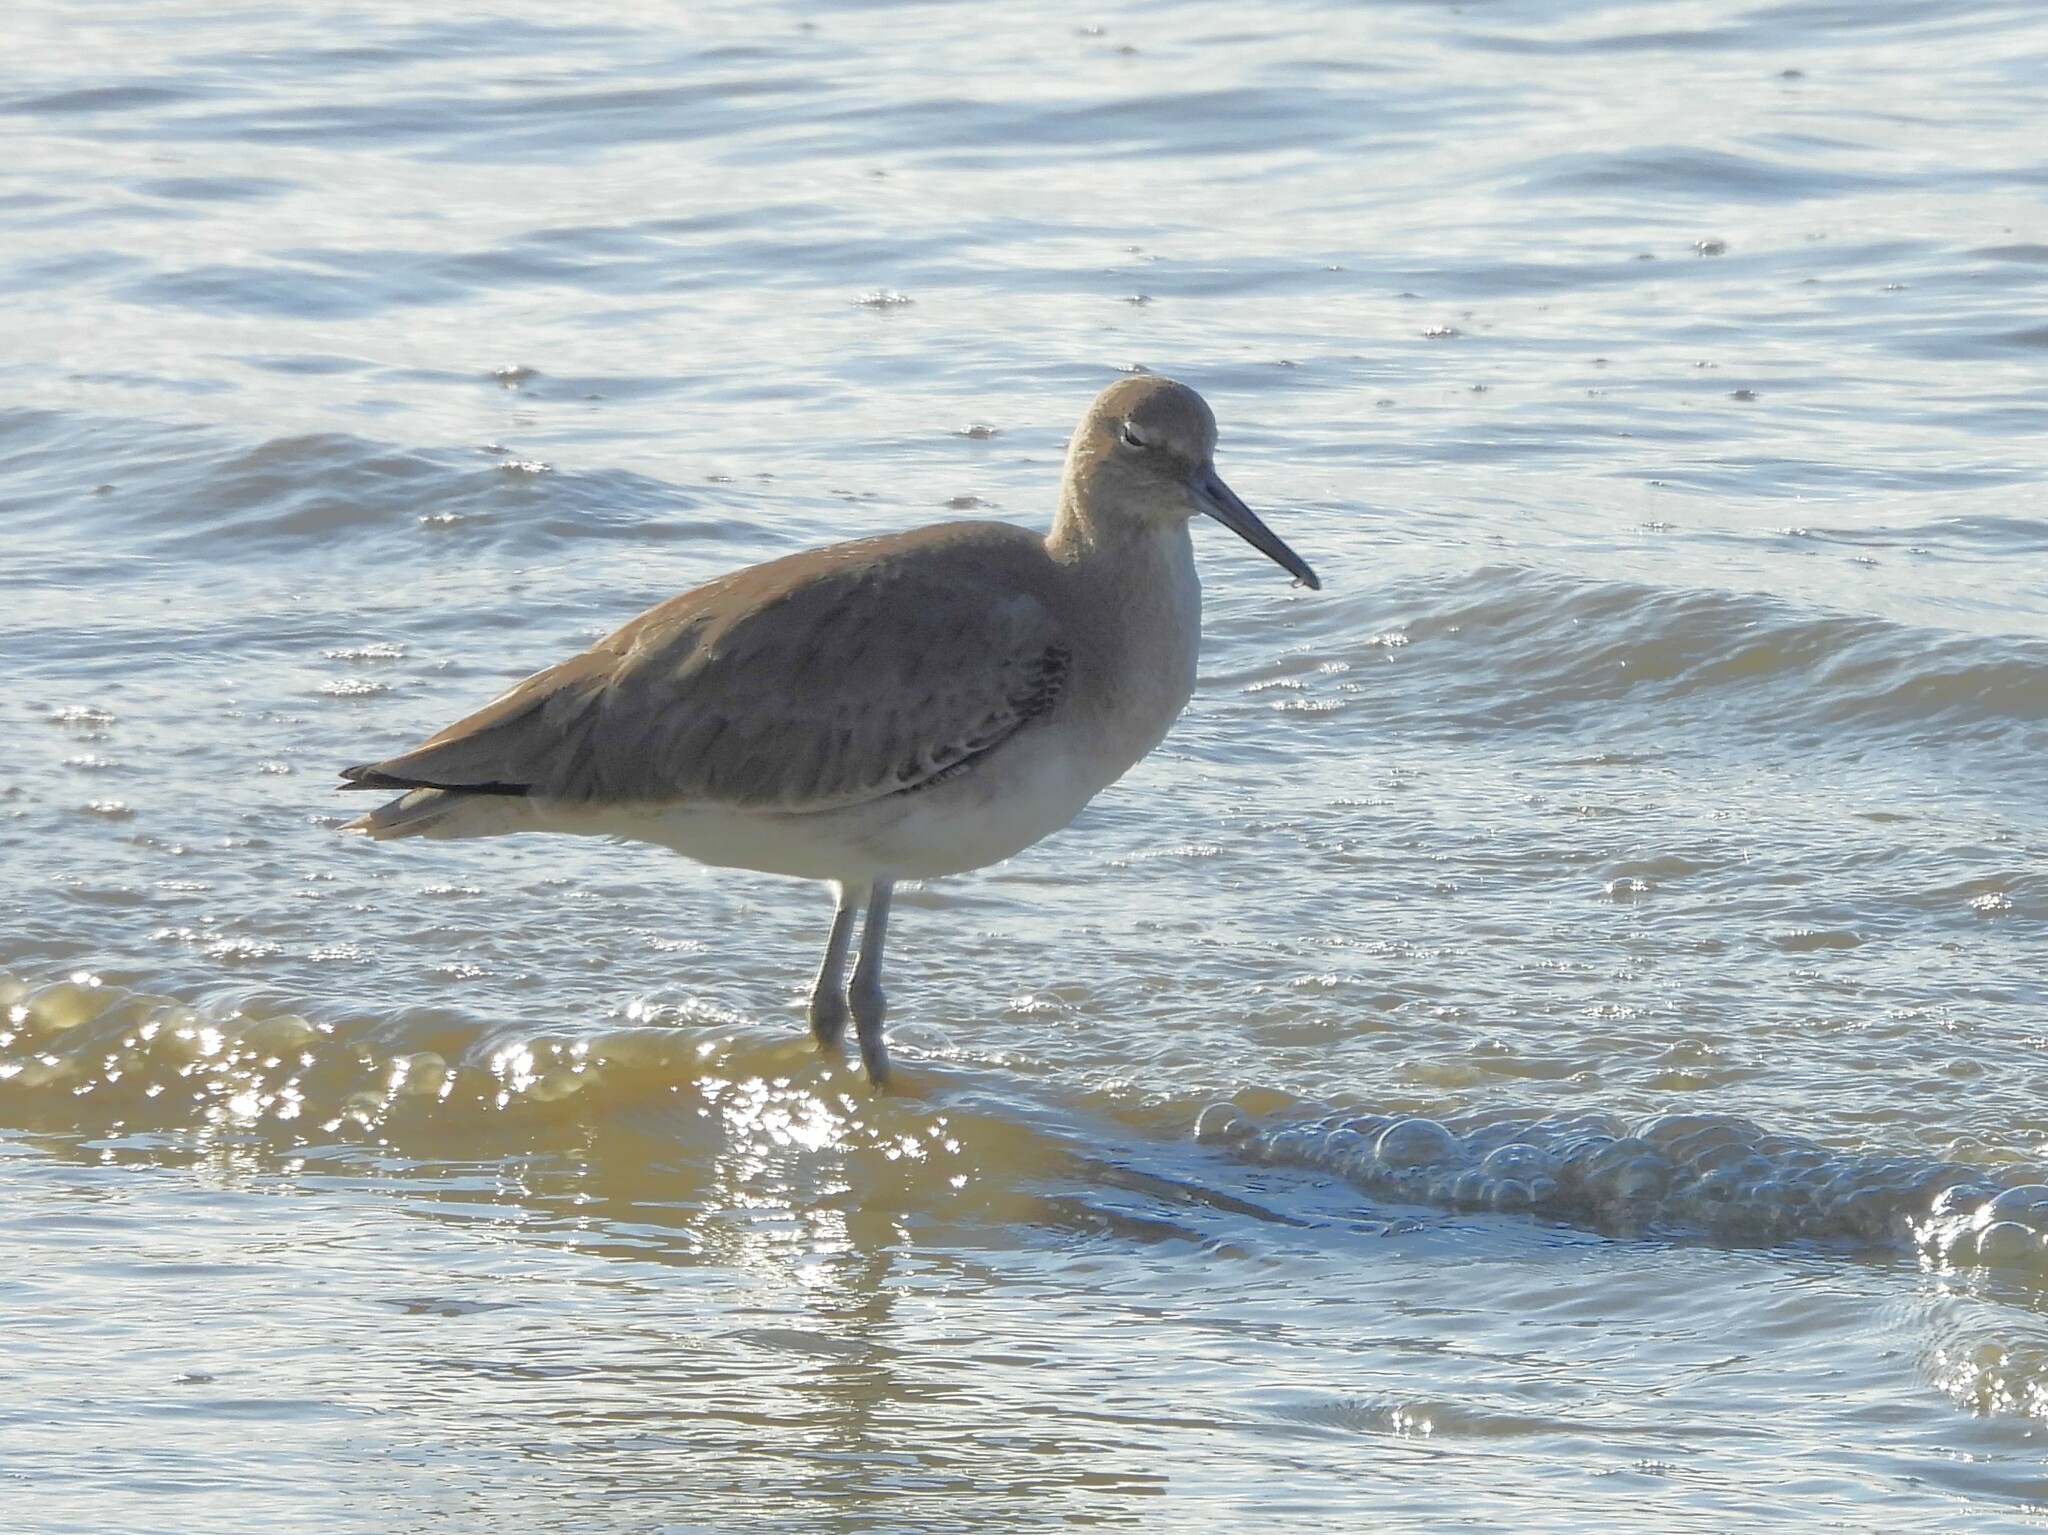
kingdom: Animalia
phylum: Chordata
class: Aves
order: Charadriiformes
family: Scolopacidae
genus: Tringa
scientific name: Tringa semipalmata
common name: Willet
